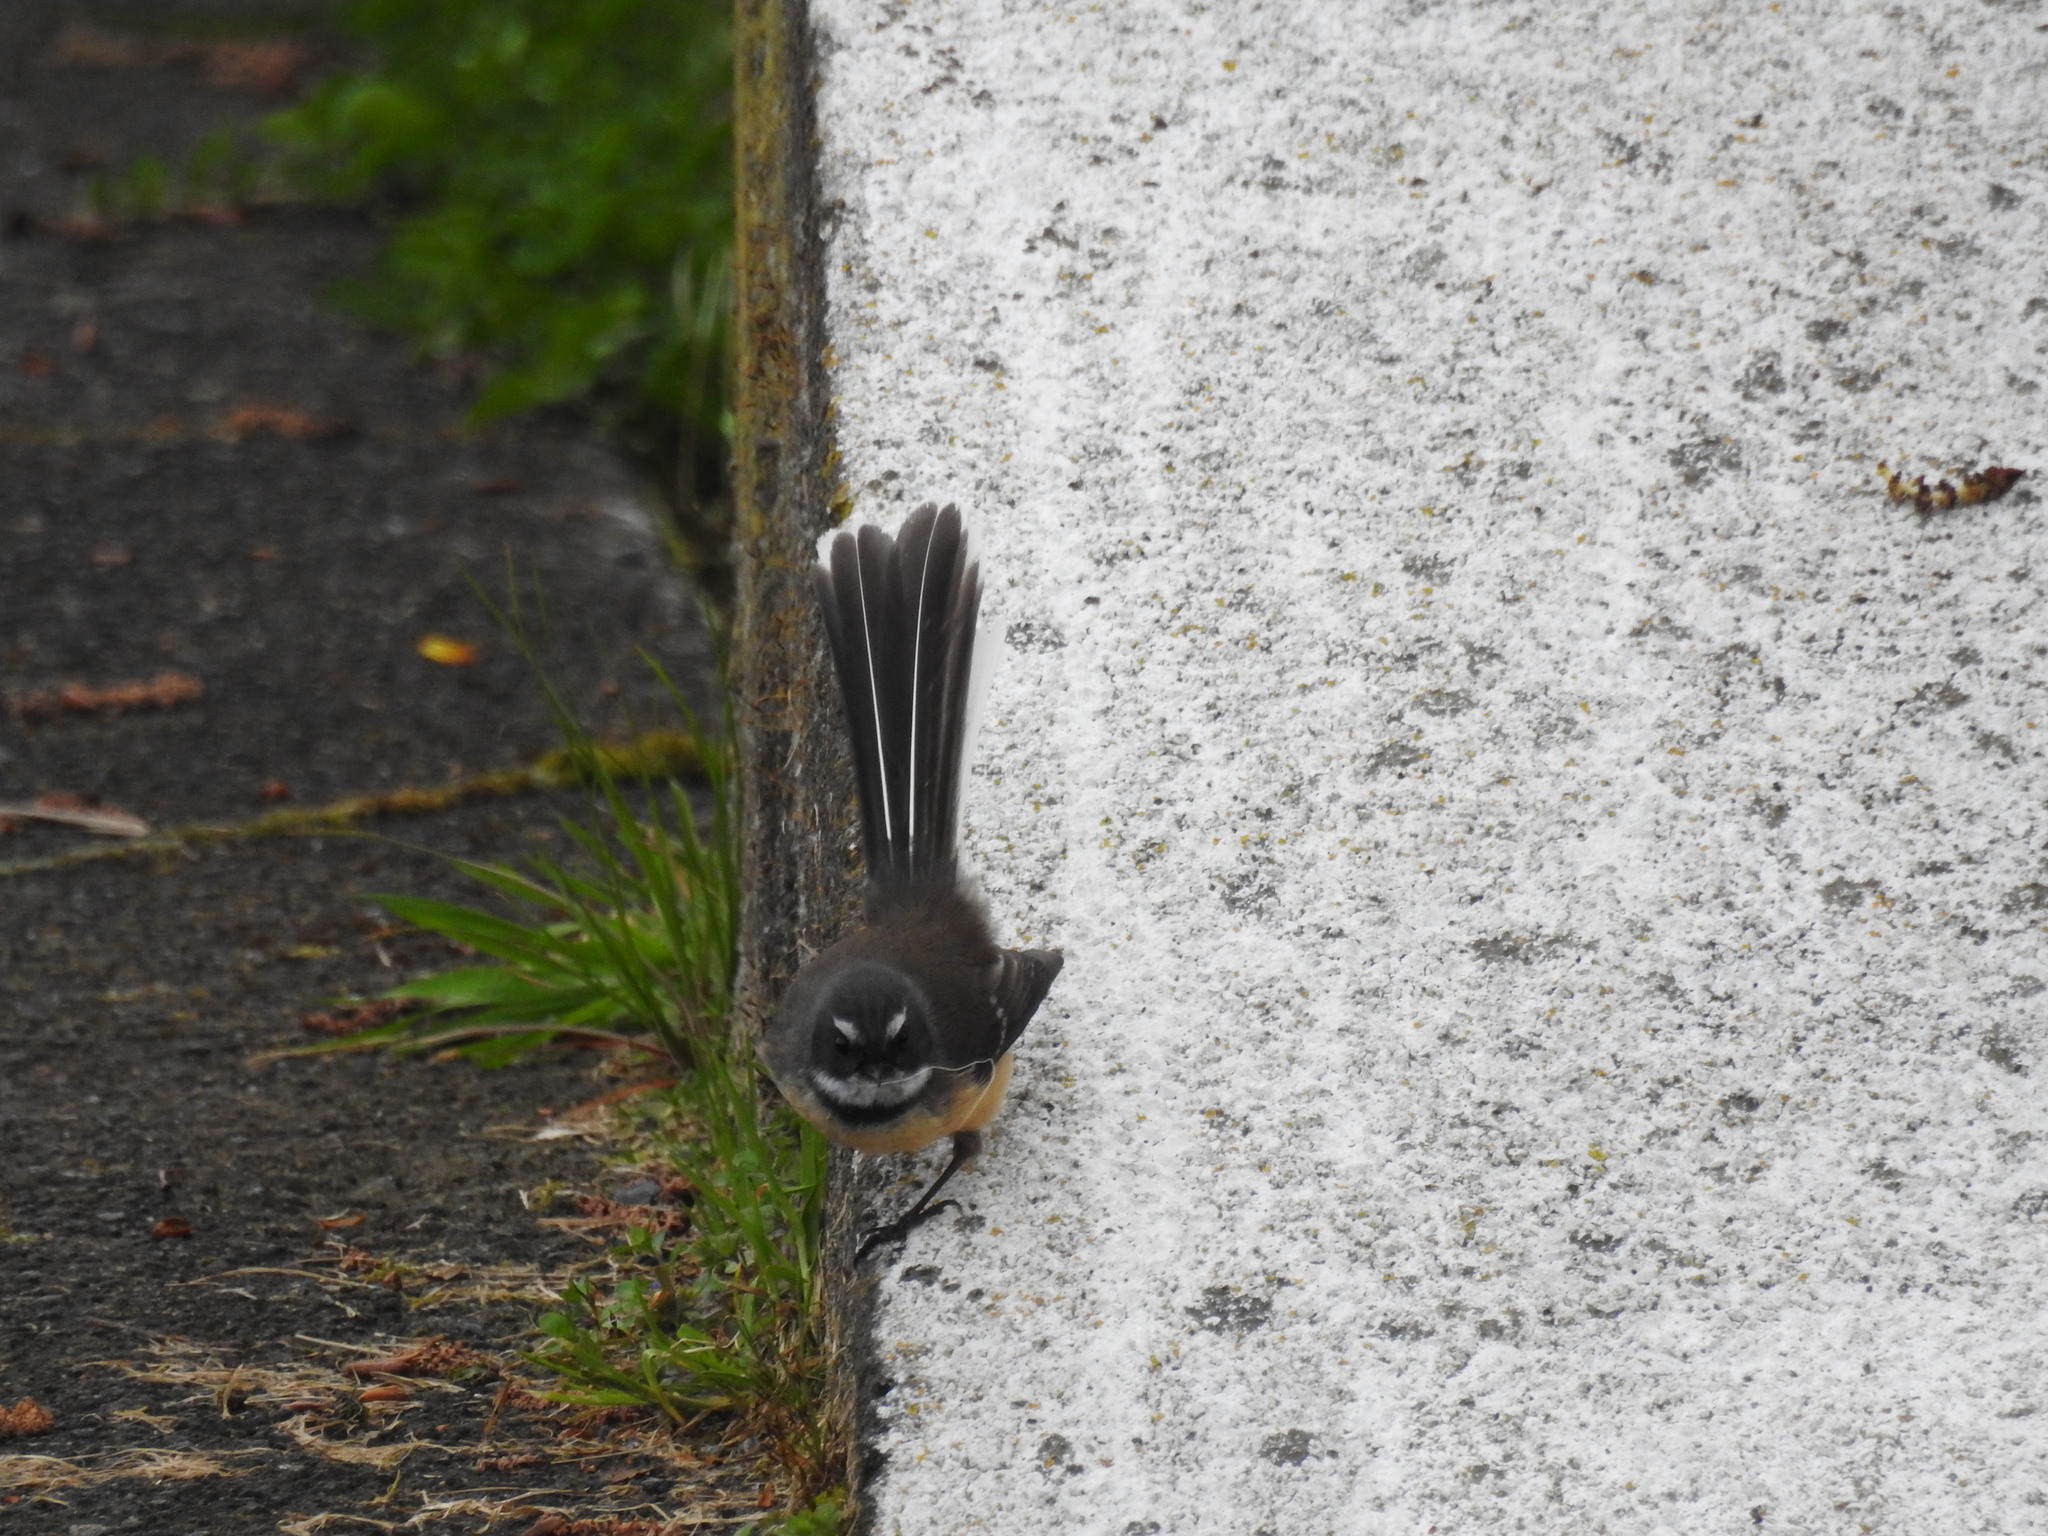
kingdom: Animalia
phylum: Chordata
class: Aves
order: Passeriformes
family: Rhipiduridae
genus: Rhipidura
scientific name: Rhipidura fuliginosa
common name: New zealand fantail
